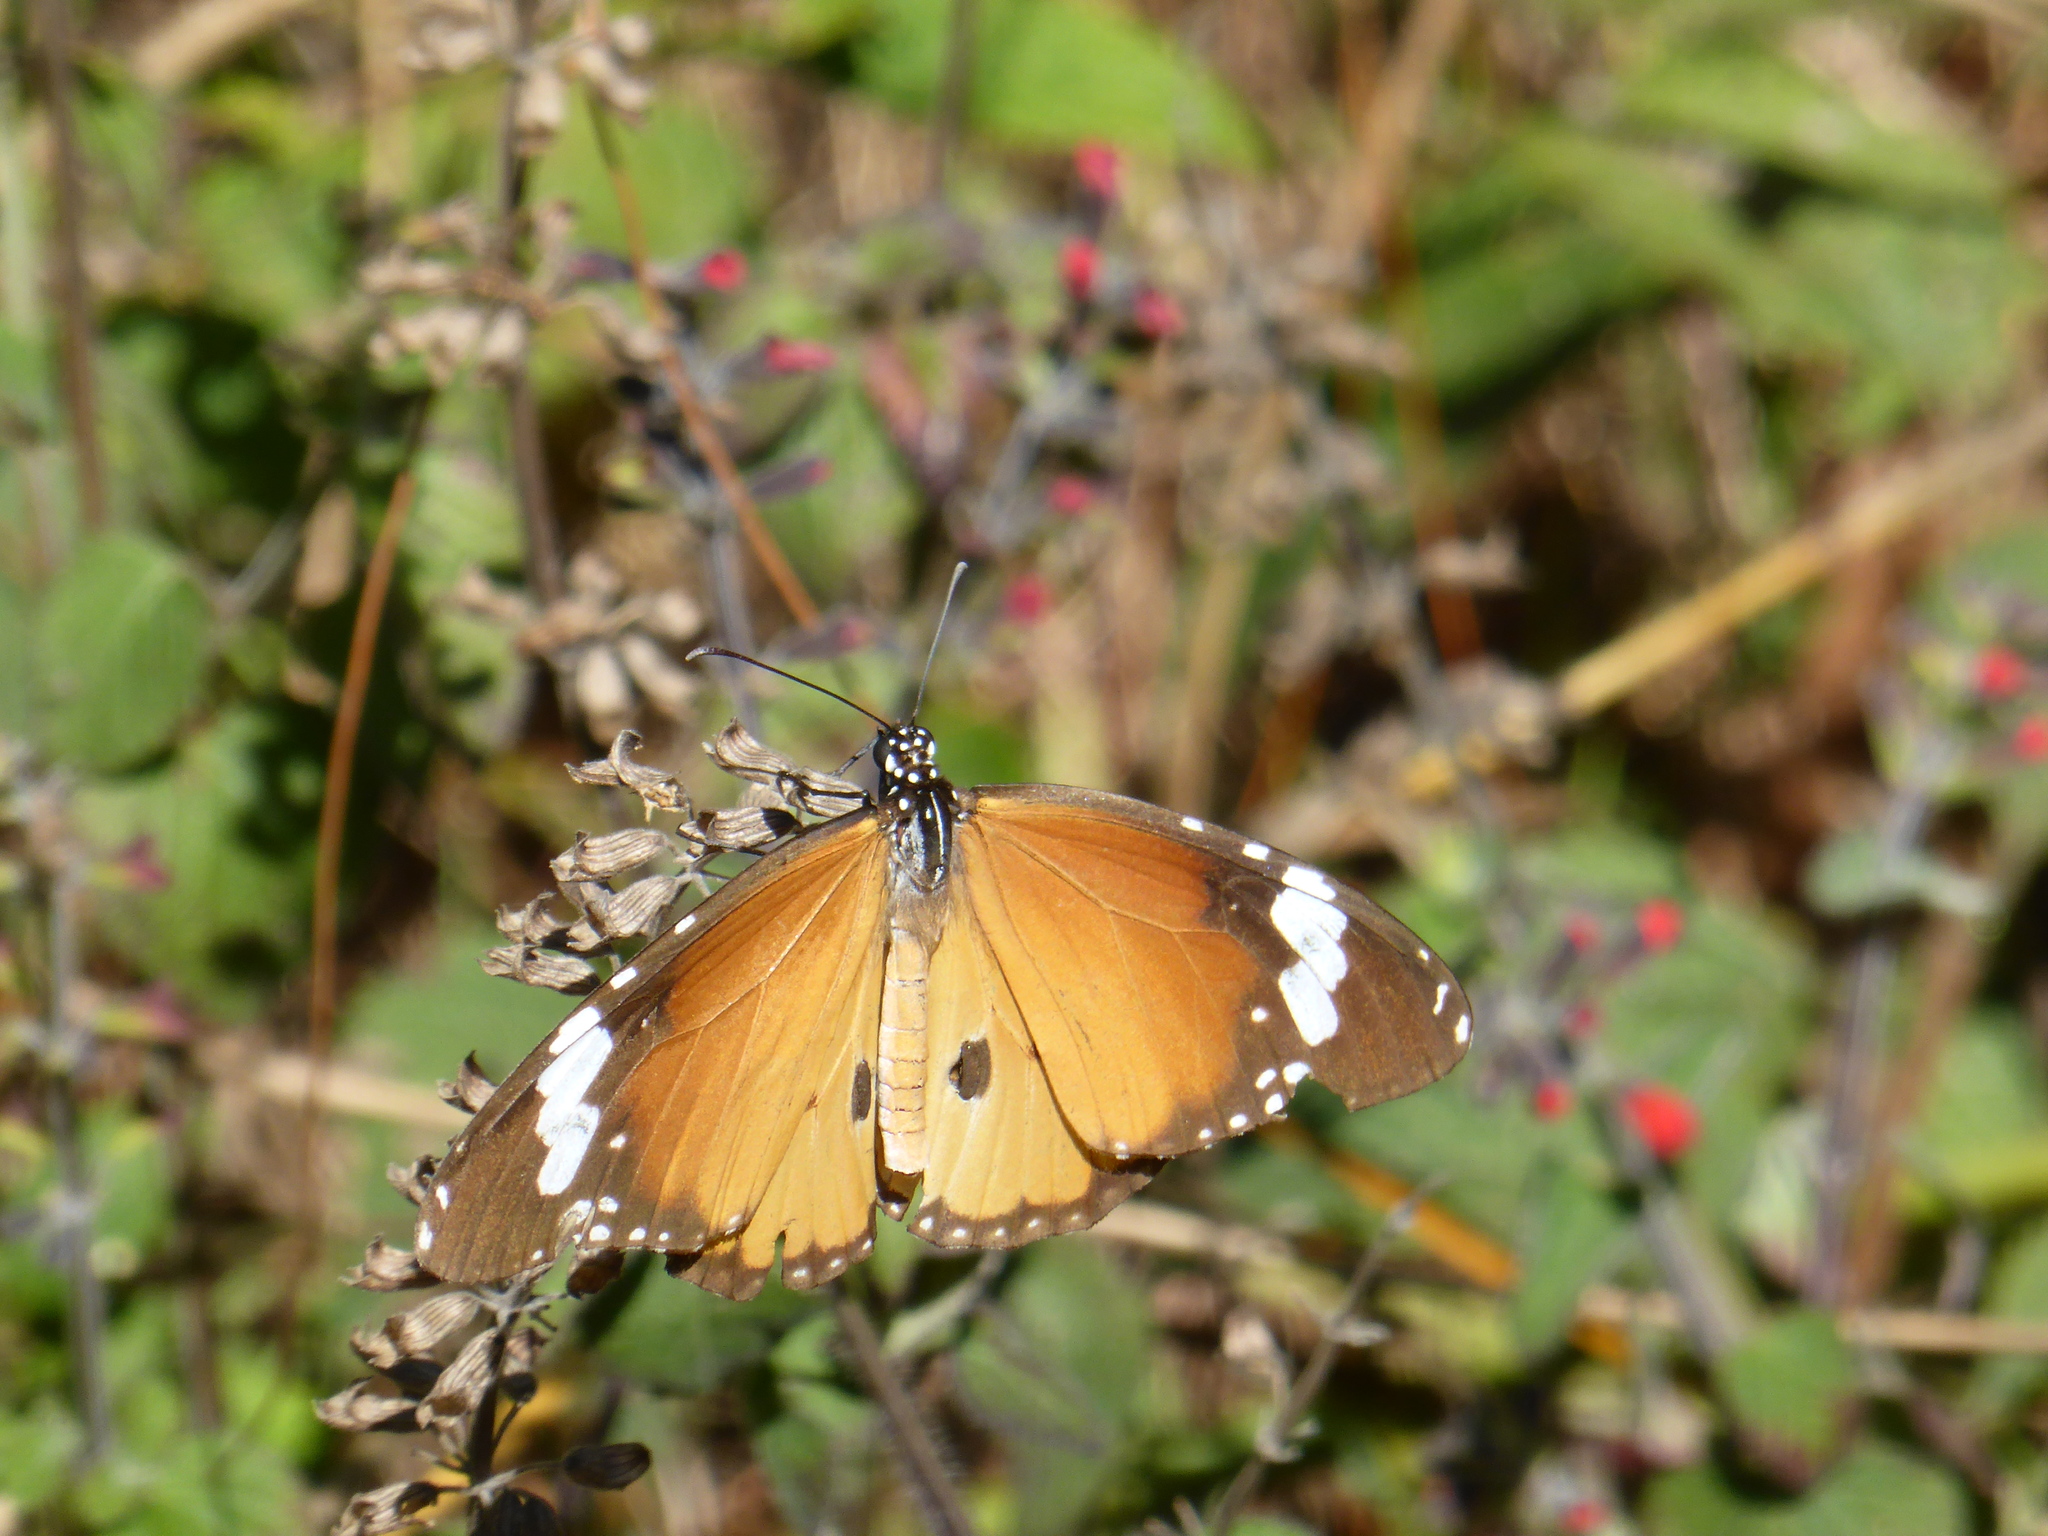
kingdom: Animalia
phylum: Arthropoda
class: Insecta
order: Lepidoptera
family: Nymphalidae
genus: Danaus
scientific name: Danaus chrysippus
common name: Plain tiger
